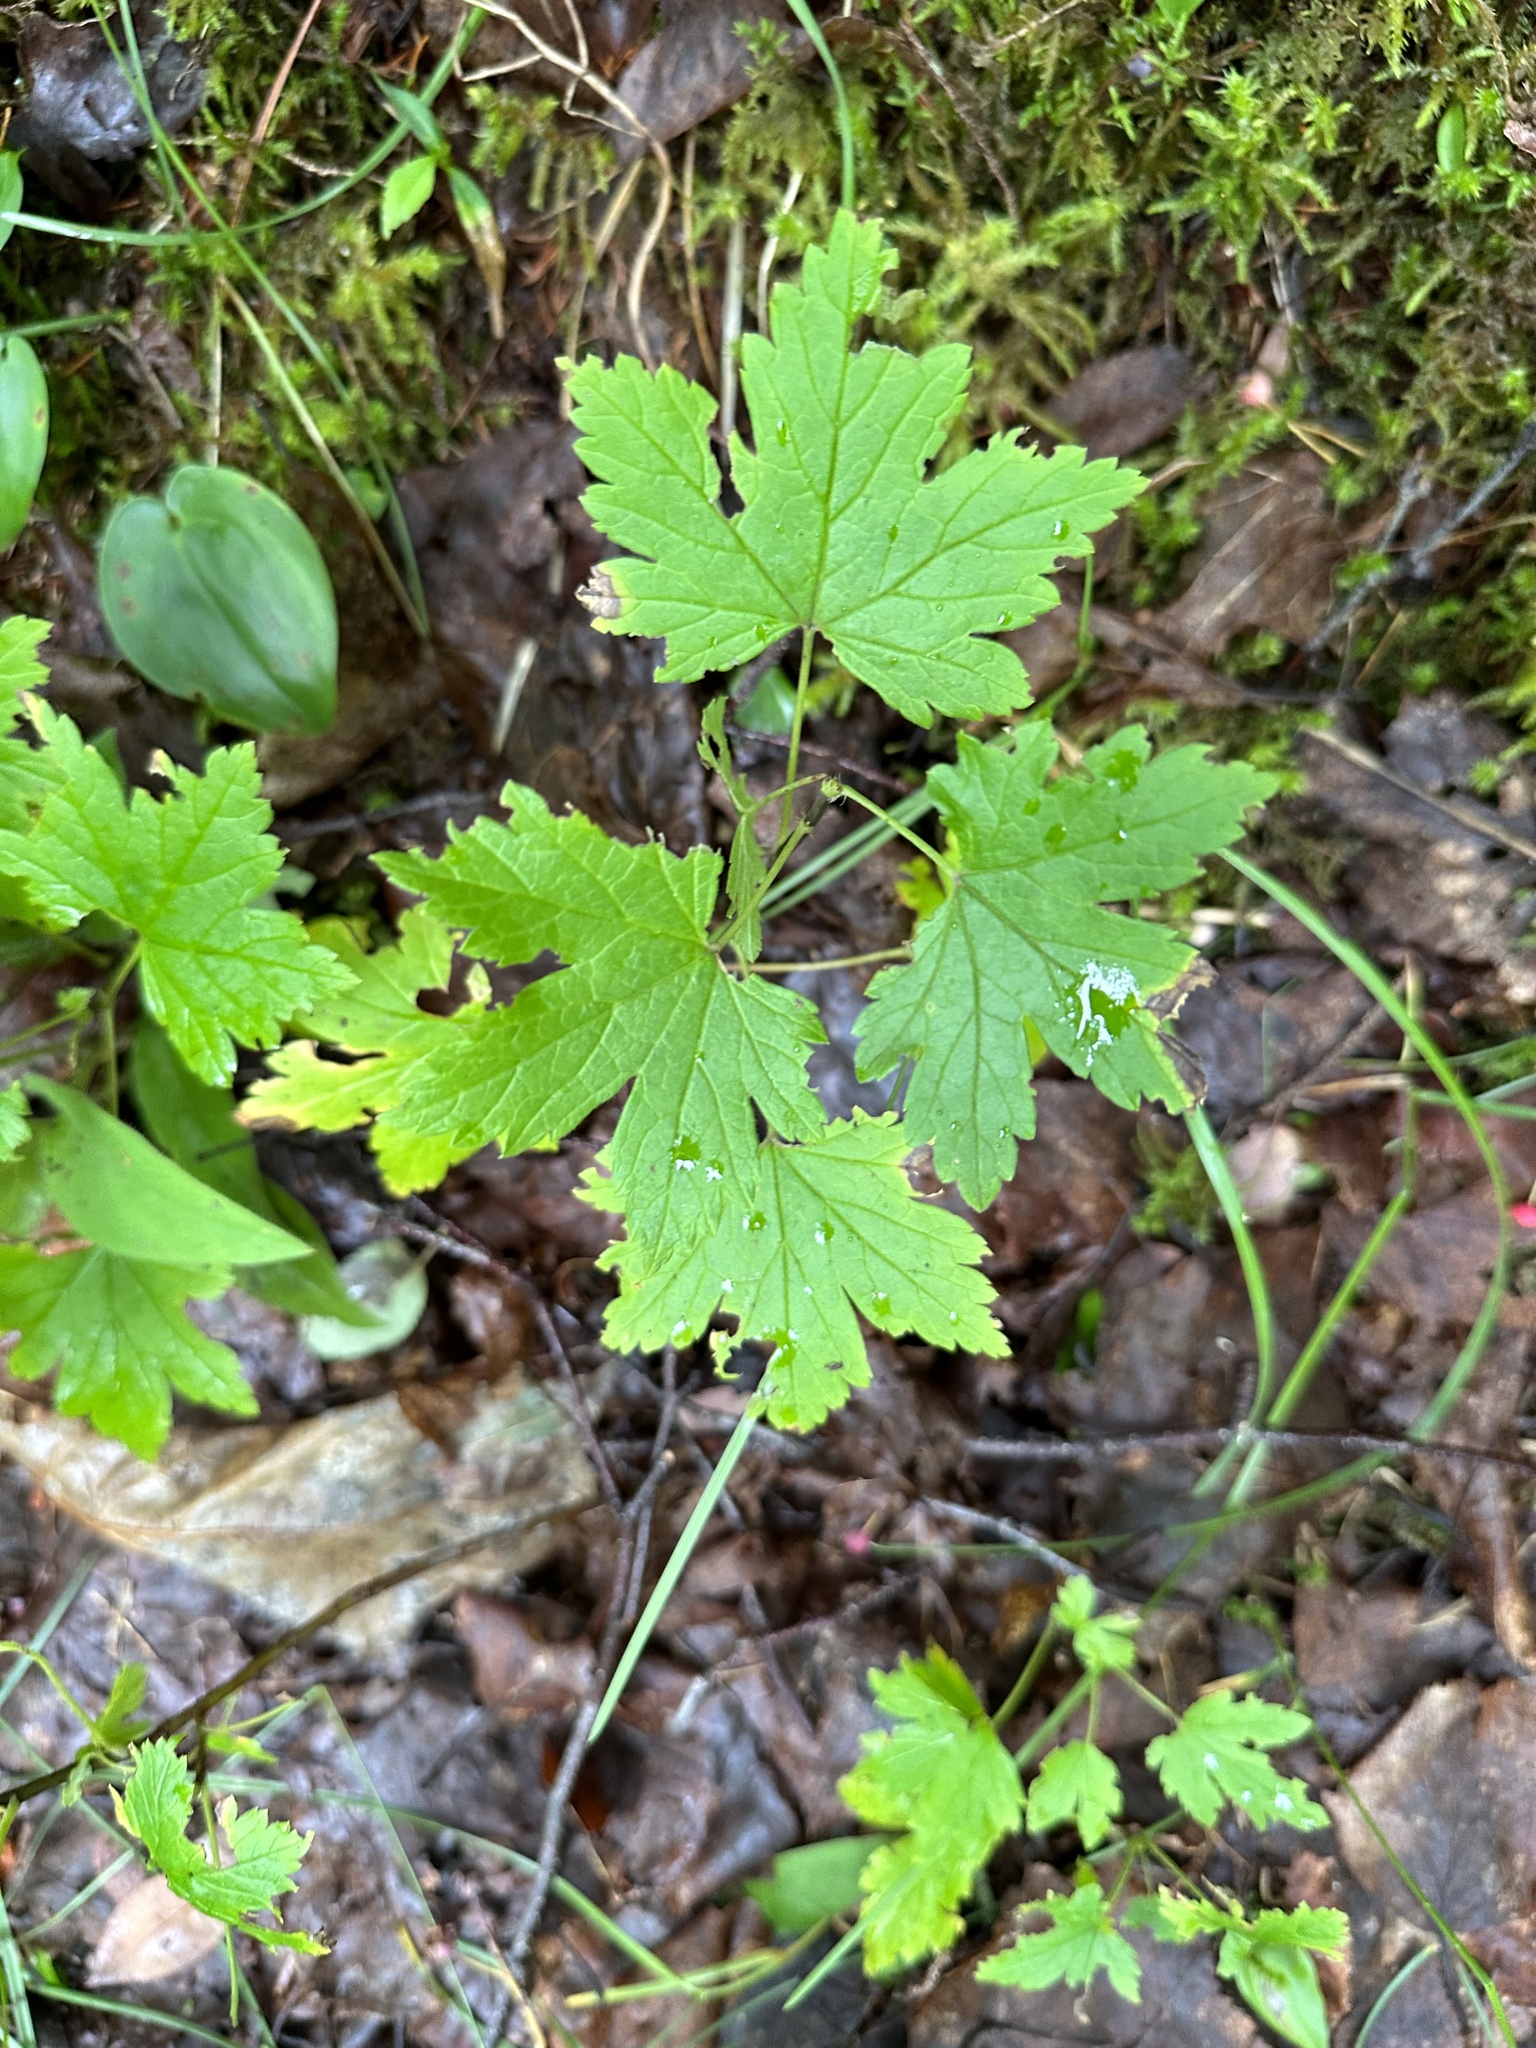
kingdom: Plantae
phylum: Tracheophyta
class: Magnoliopsida
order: Saxifragales
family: Grossulariaceae
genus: Ribes
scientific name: Ribes glandulosum
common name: Skunk currant
